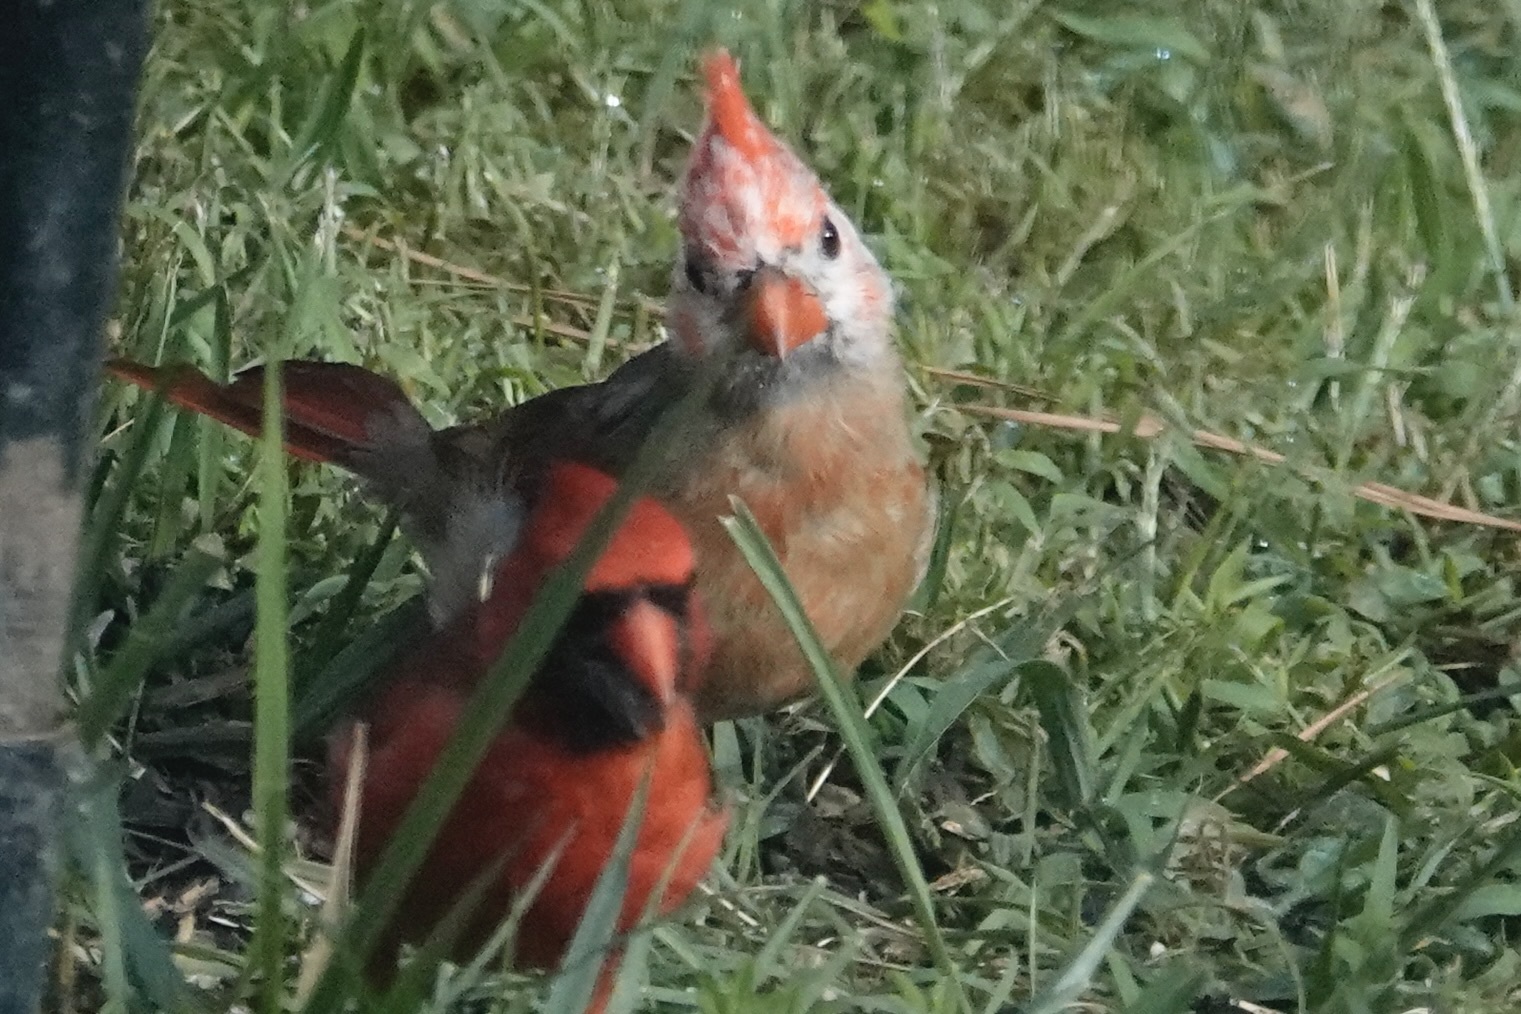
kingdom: Animalia
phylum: Chordata
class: Aves
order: Passeriformes
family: Cardinalidae
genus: Cardinalis
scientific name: Cardinalis cardinalis
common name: Northern cardinal
